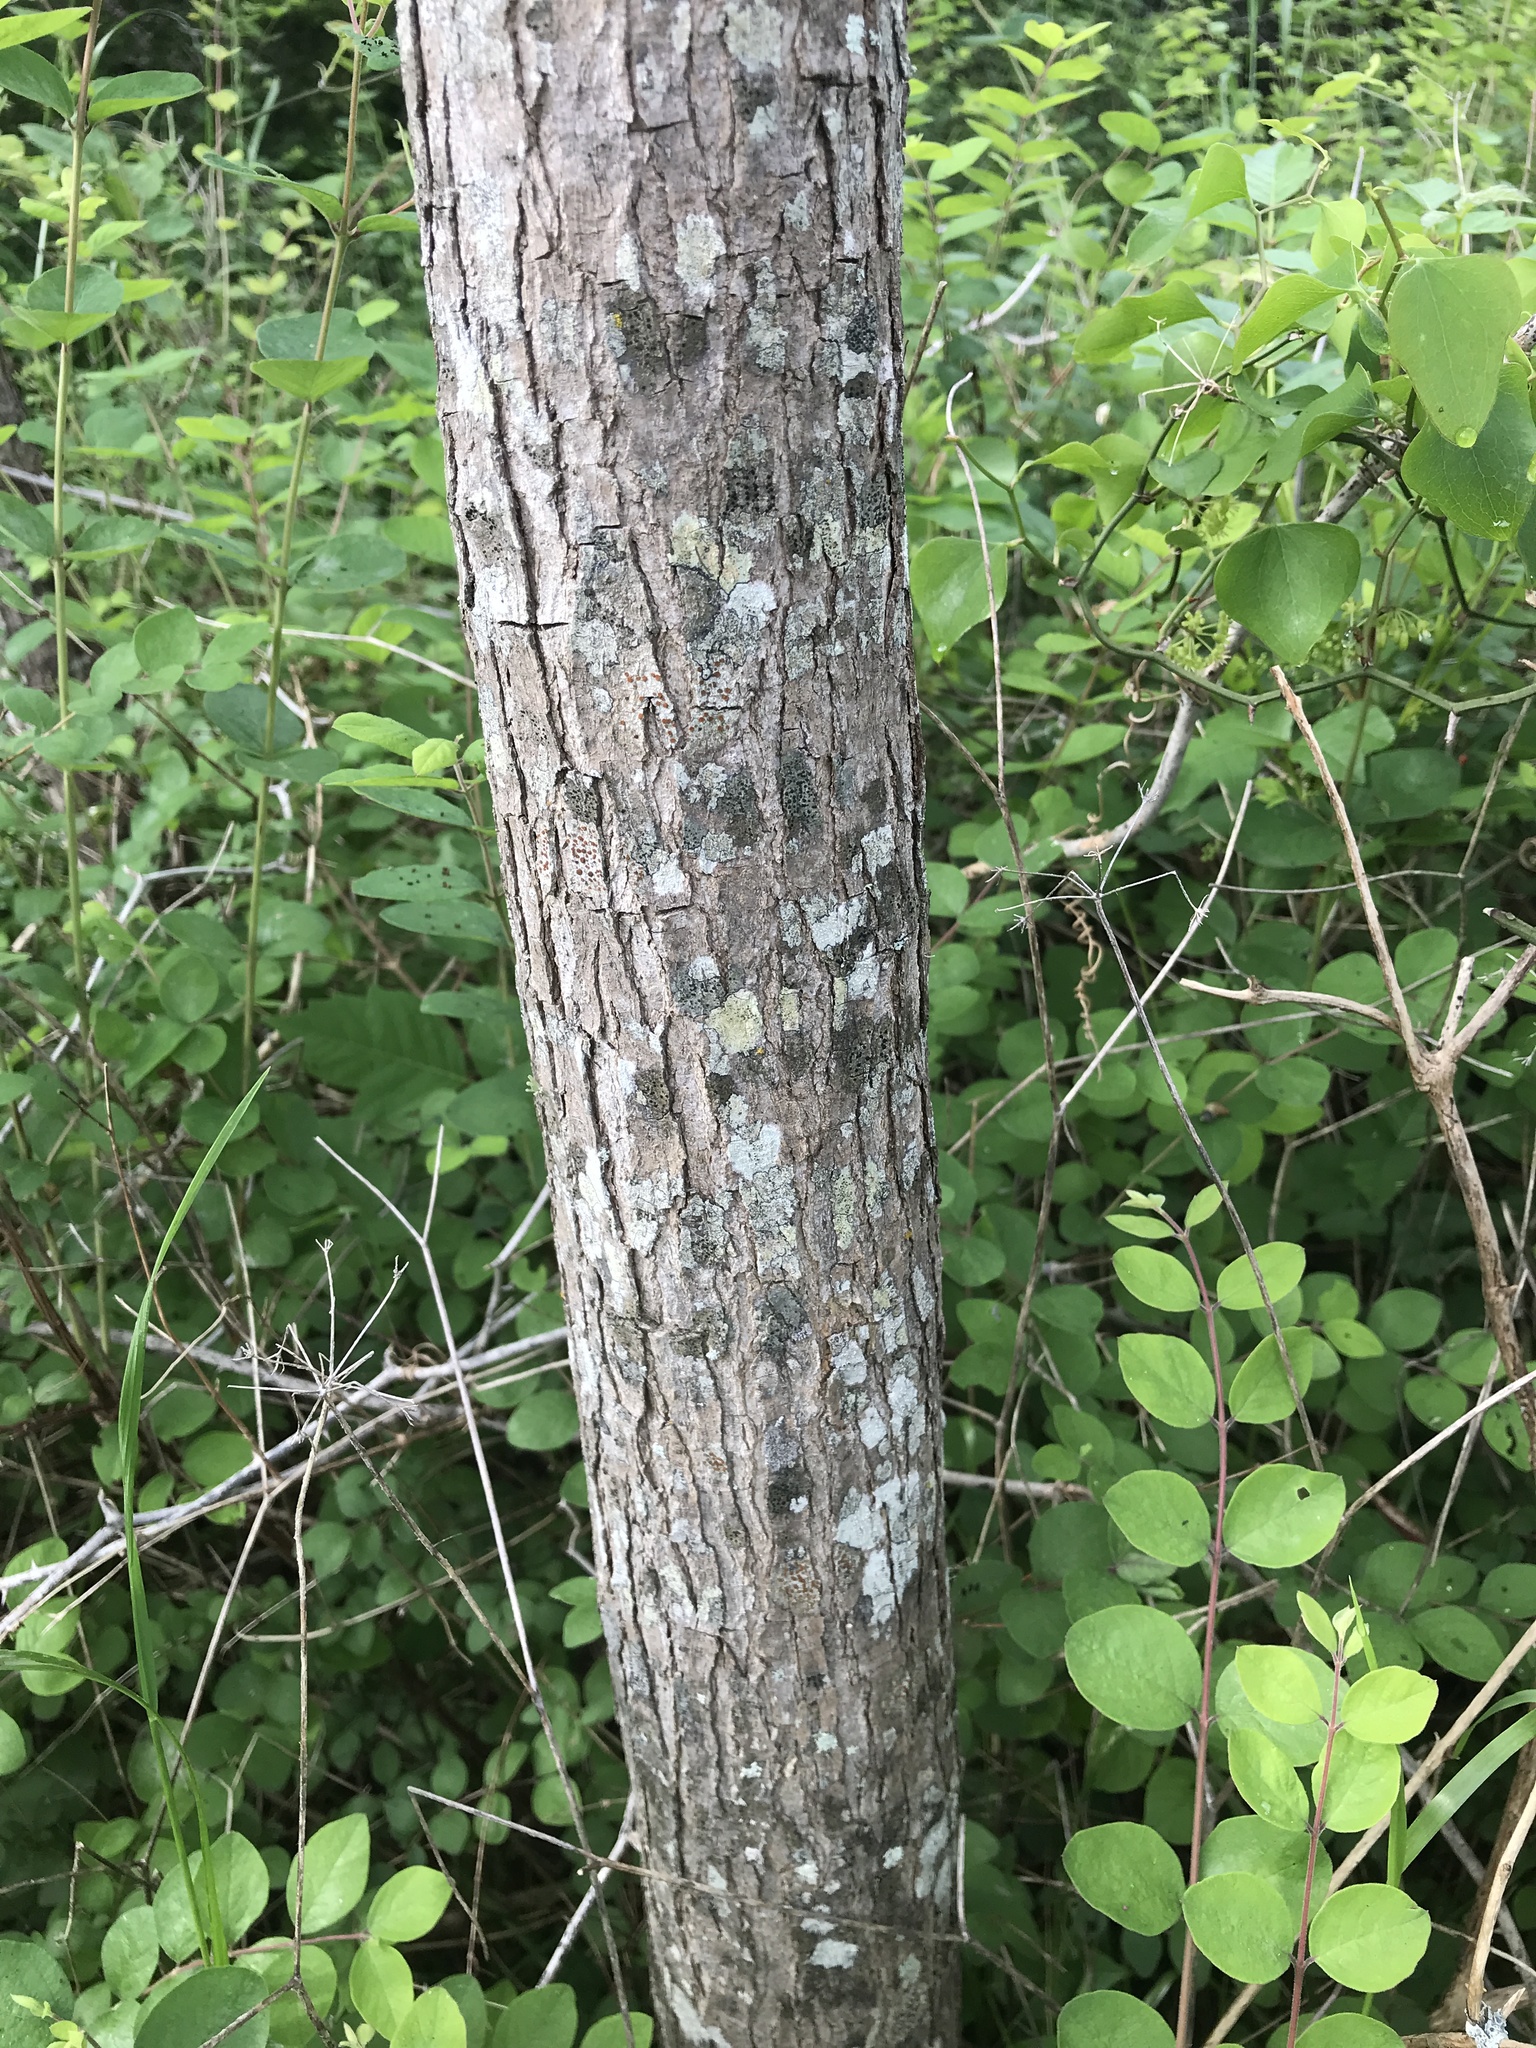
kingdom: Plantae
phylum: Tracheophyta
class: Magnoliopsida
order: Fabales
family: Fabaceae
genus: Styphnolobium
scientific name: Styphnolobium affine
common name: Texas sophora
